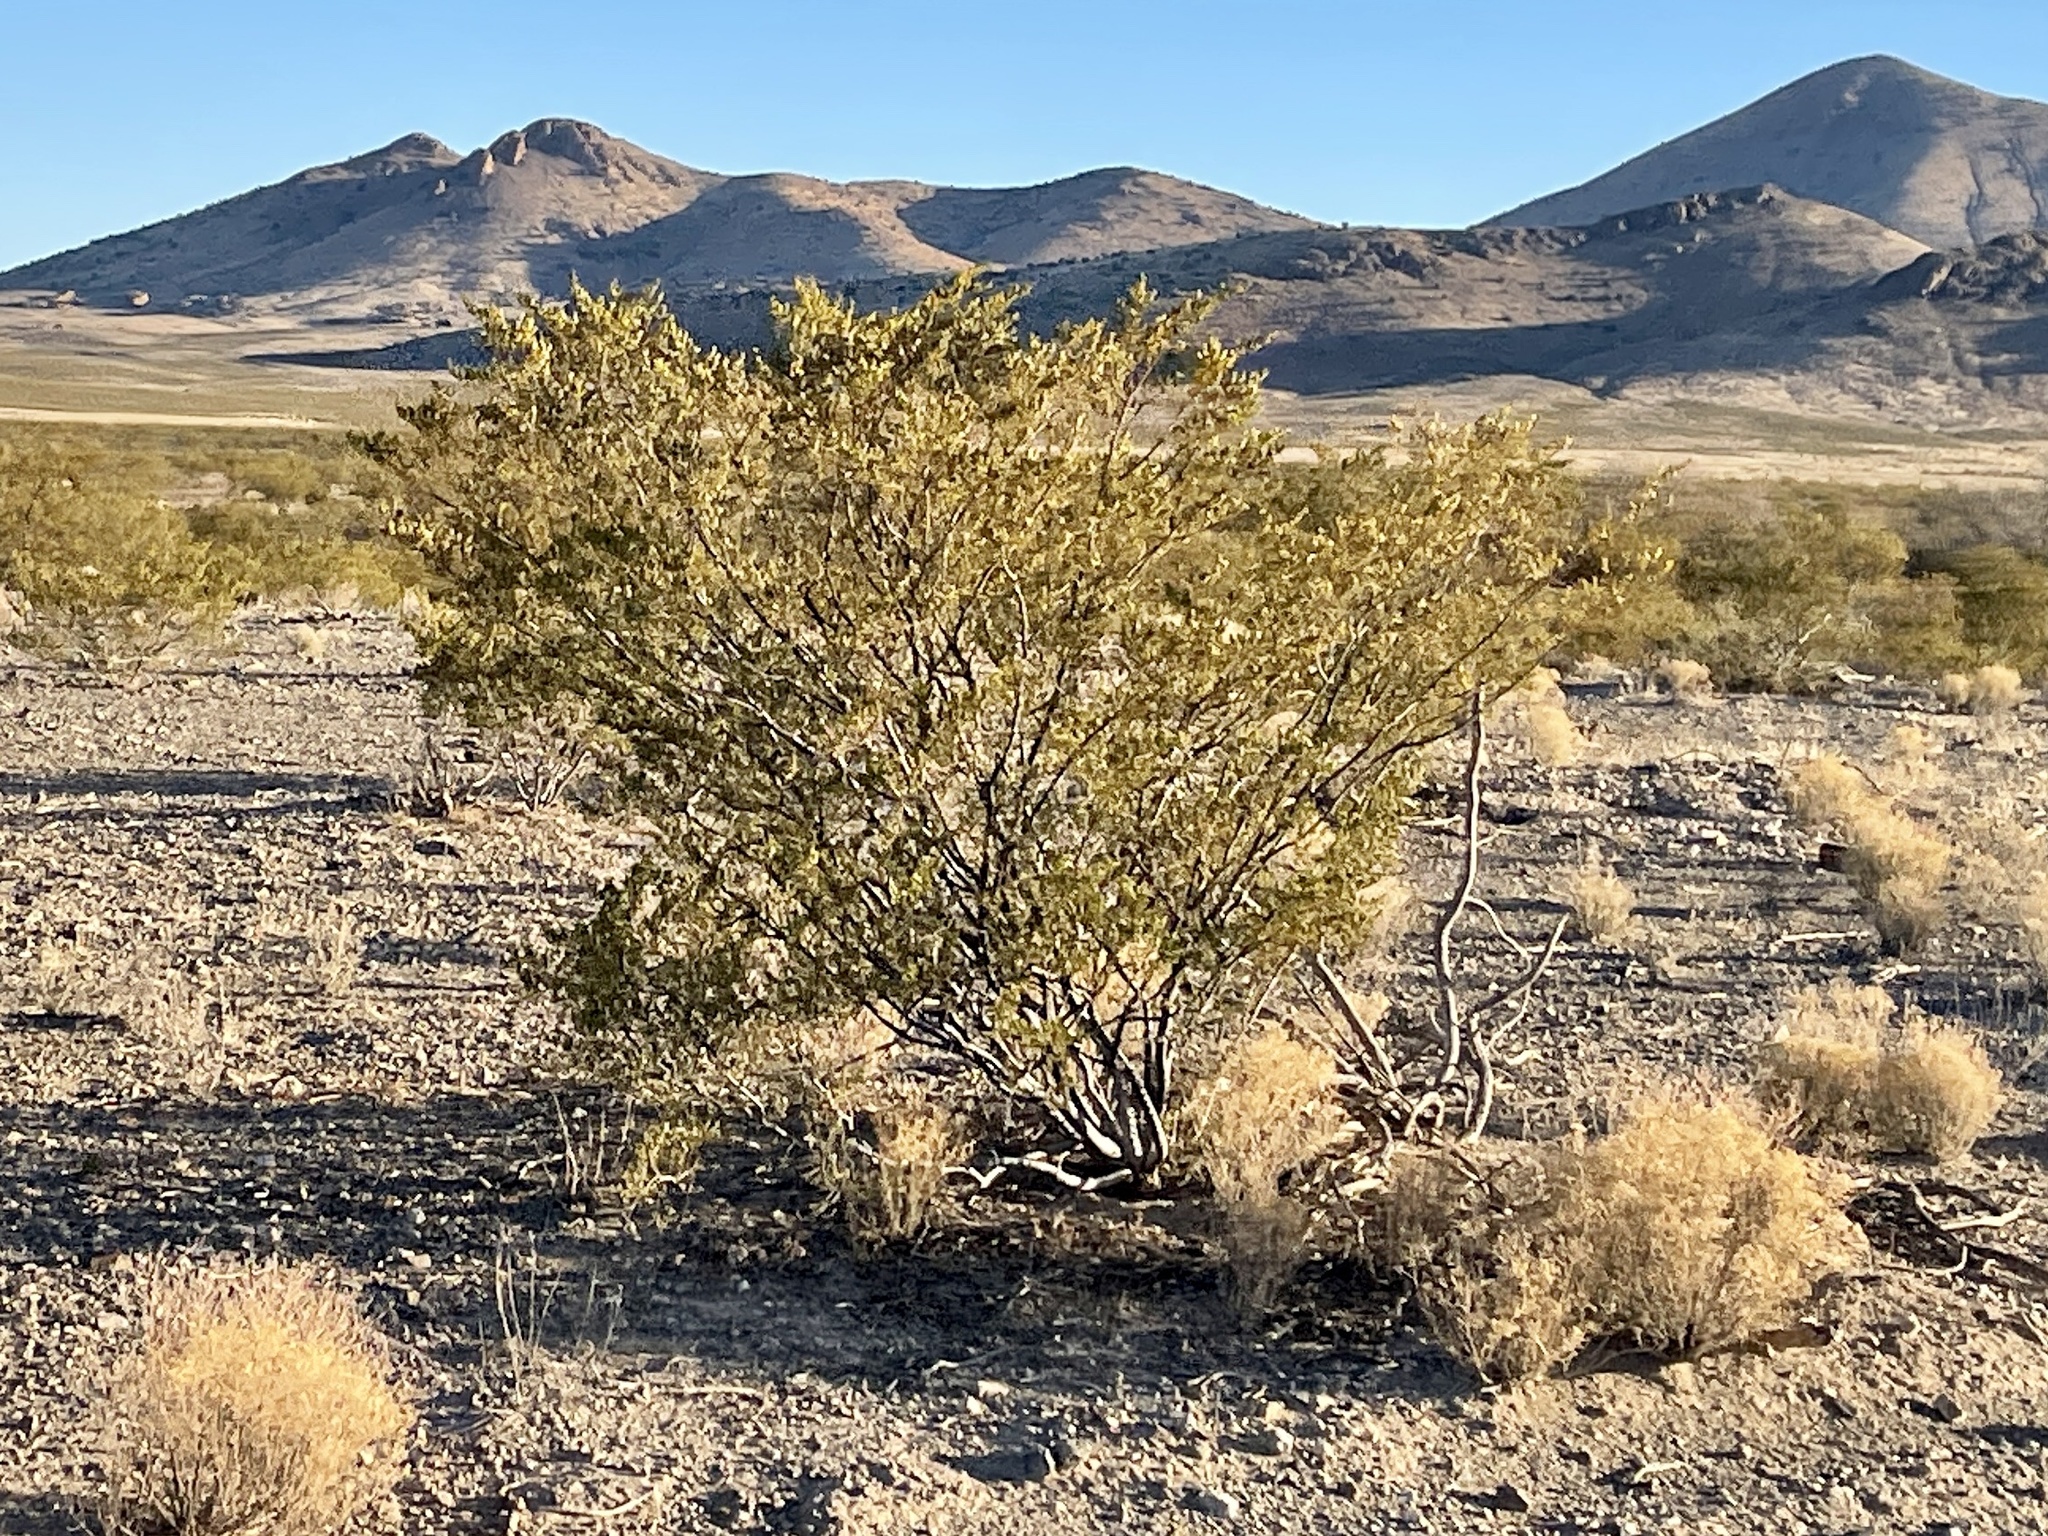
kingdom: Plantae
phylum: Tracheophyta
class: Magnoliopsida
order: Zygophyllales
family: Zygophyllaceae
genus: Larrea
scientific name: Larrea tridentata
